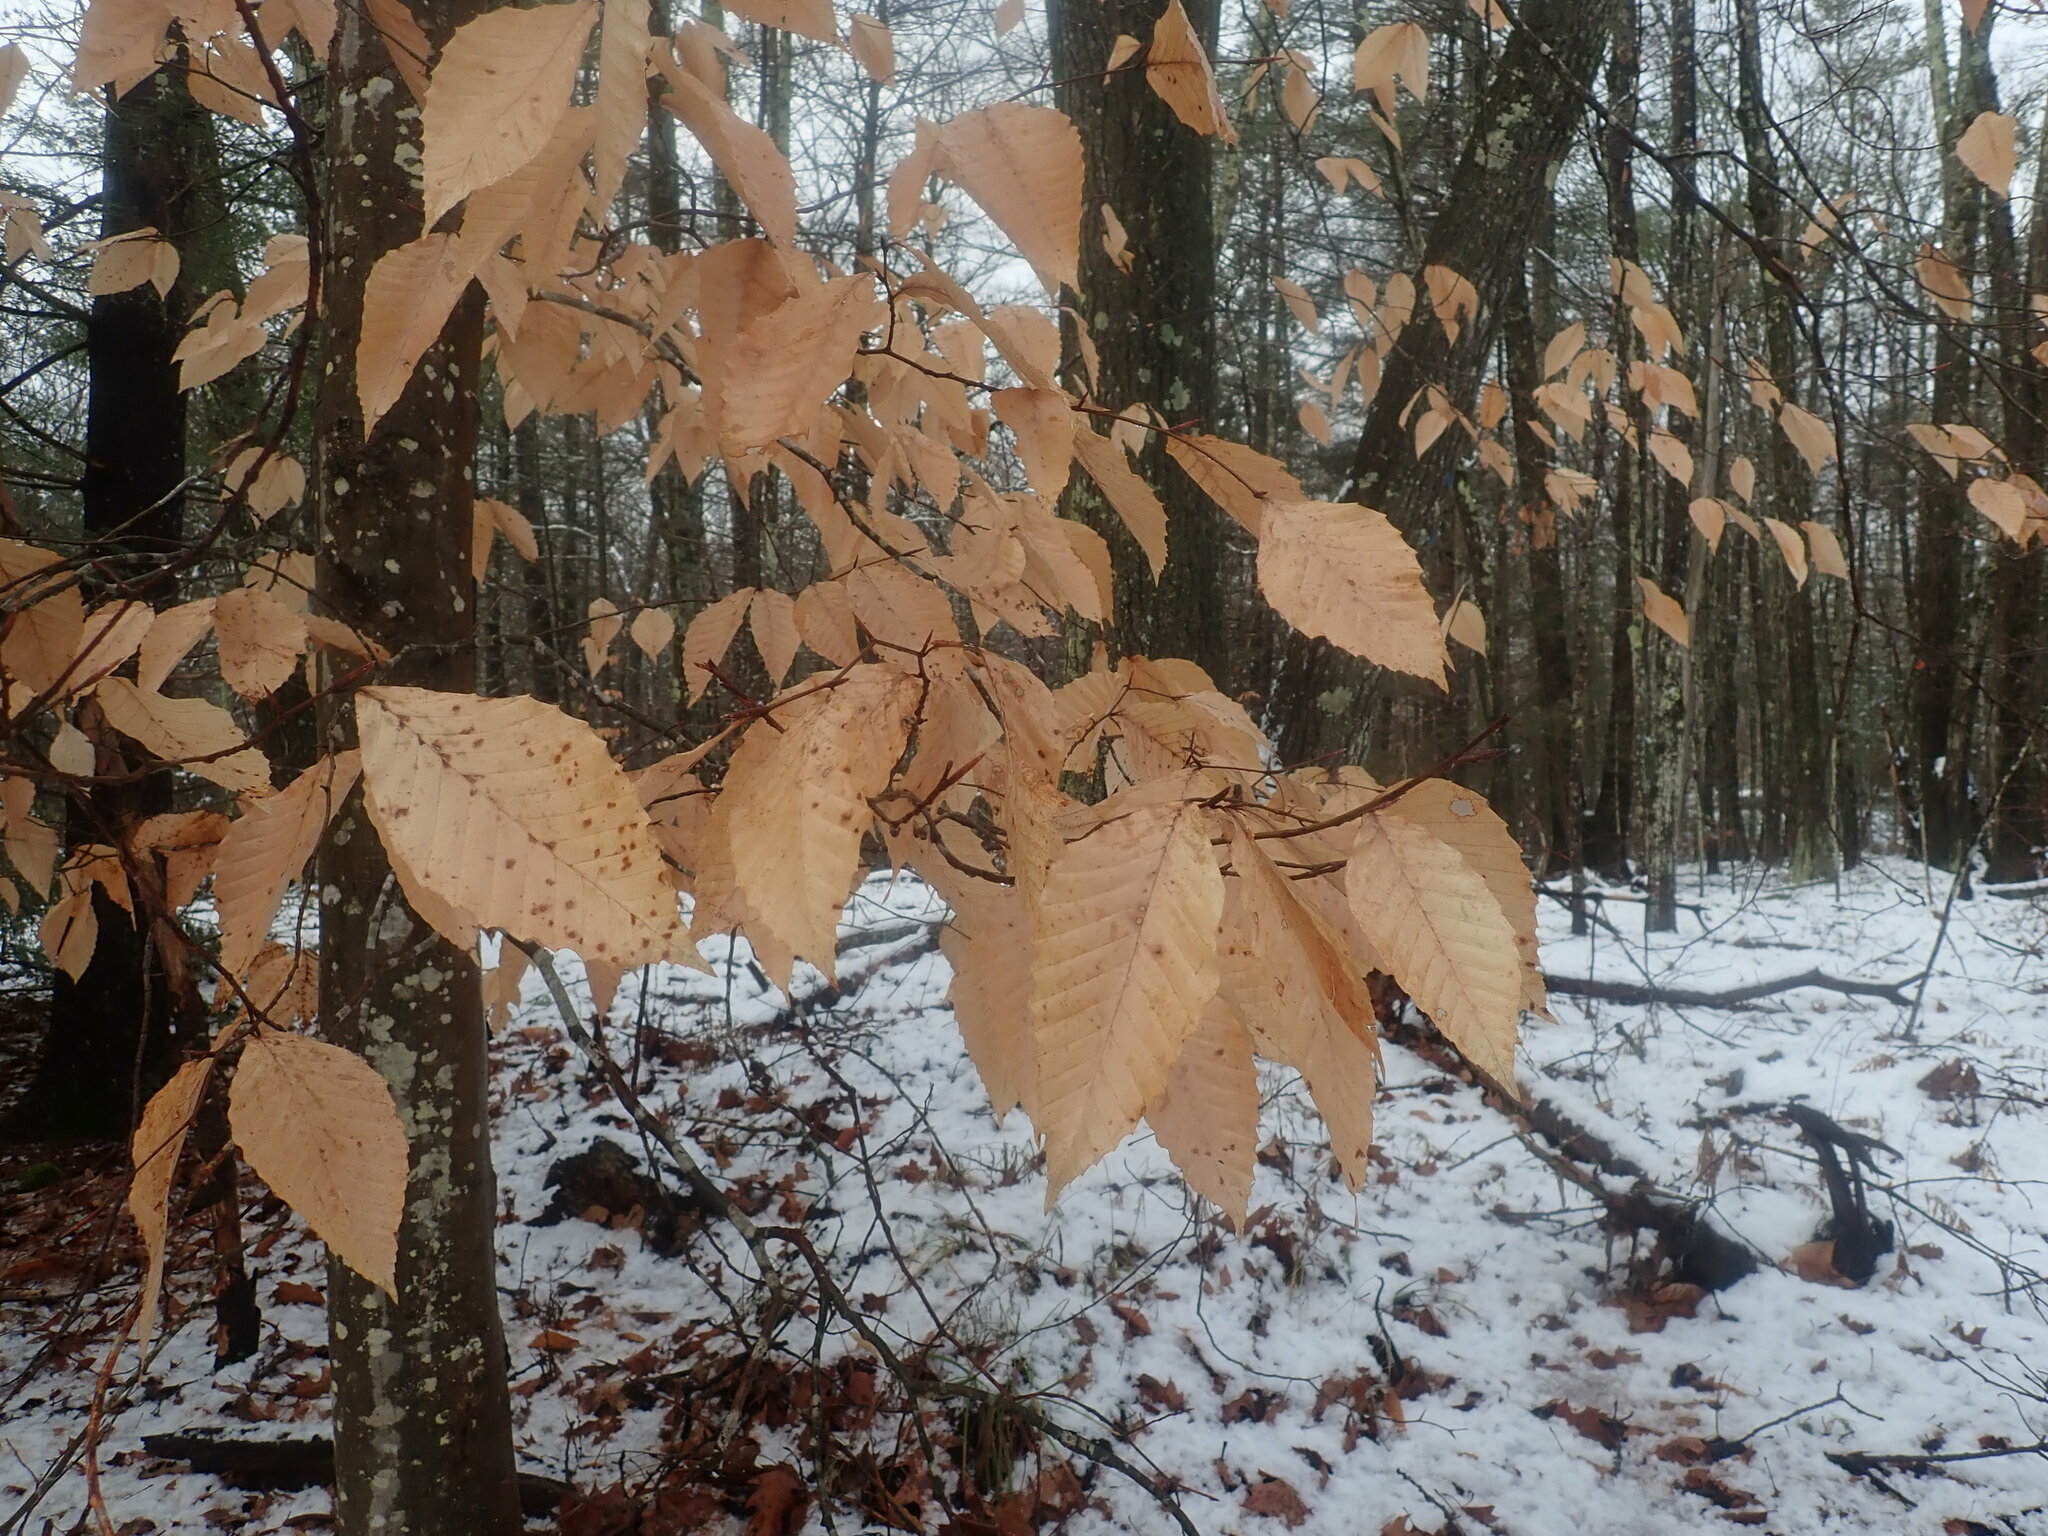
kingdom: Plantae
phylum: Tracheophyta
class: Magnoliopsida
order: Fagales
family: Fagaceae
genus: Fagus
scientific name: Fagus grandifolia
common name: American beech
